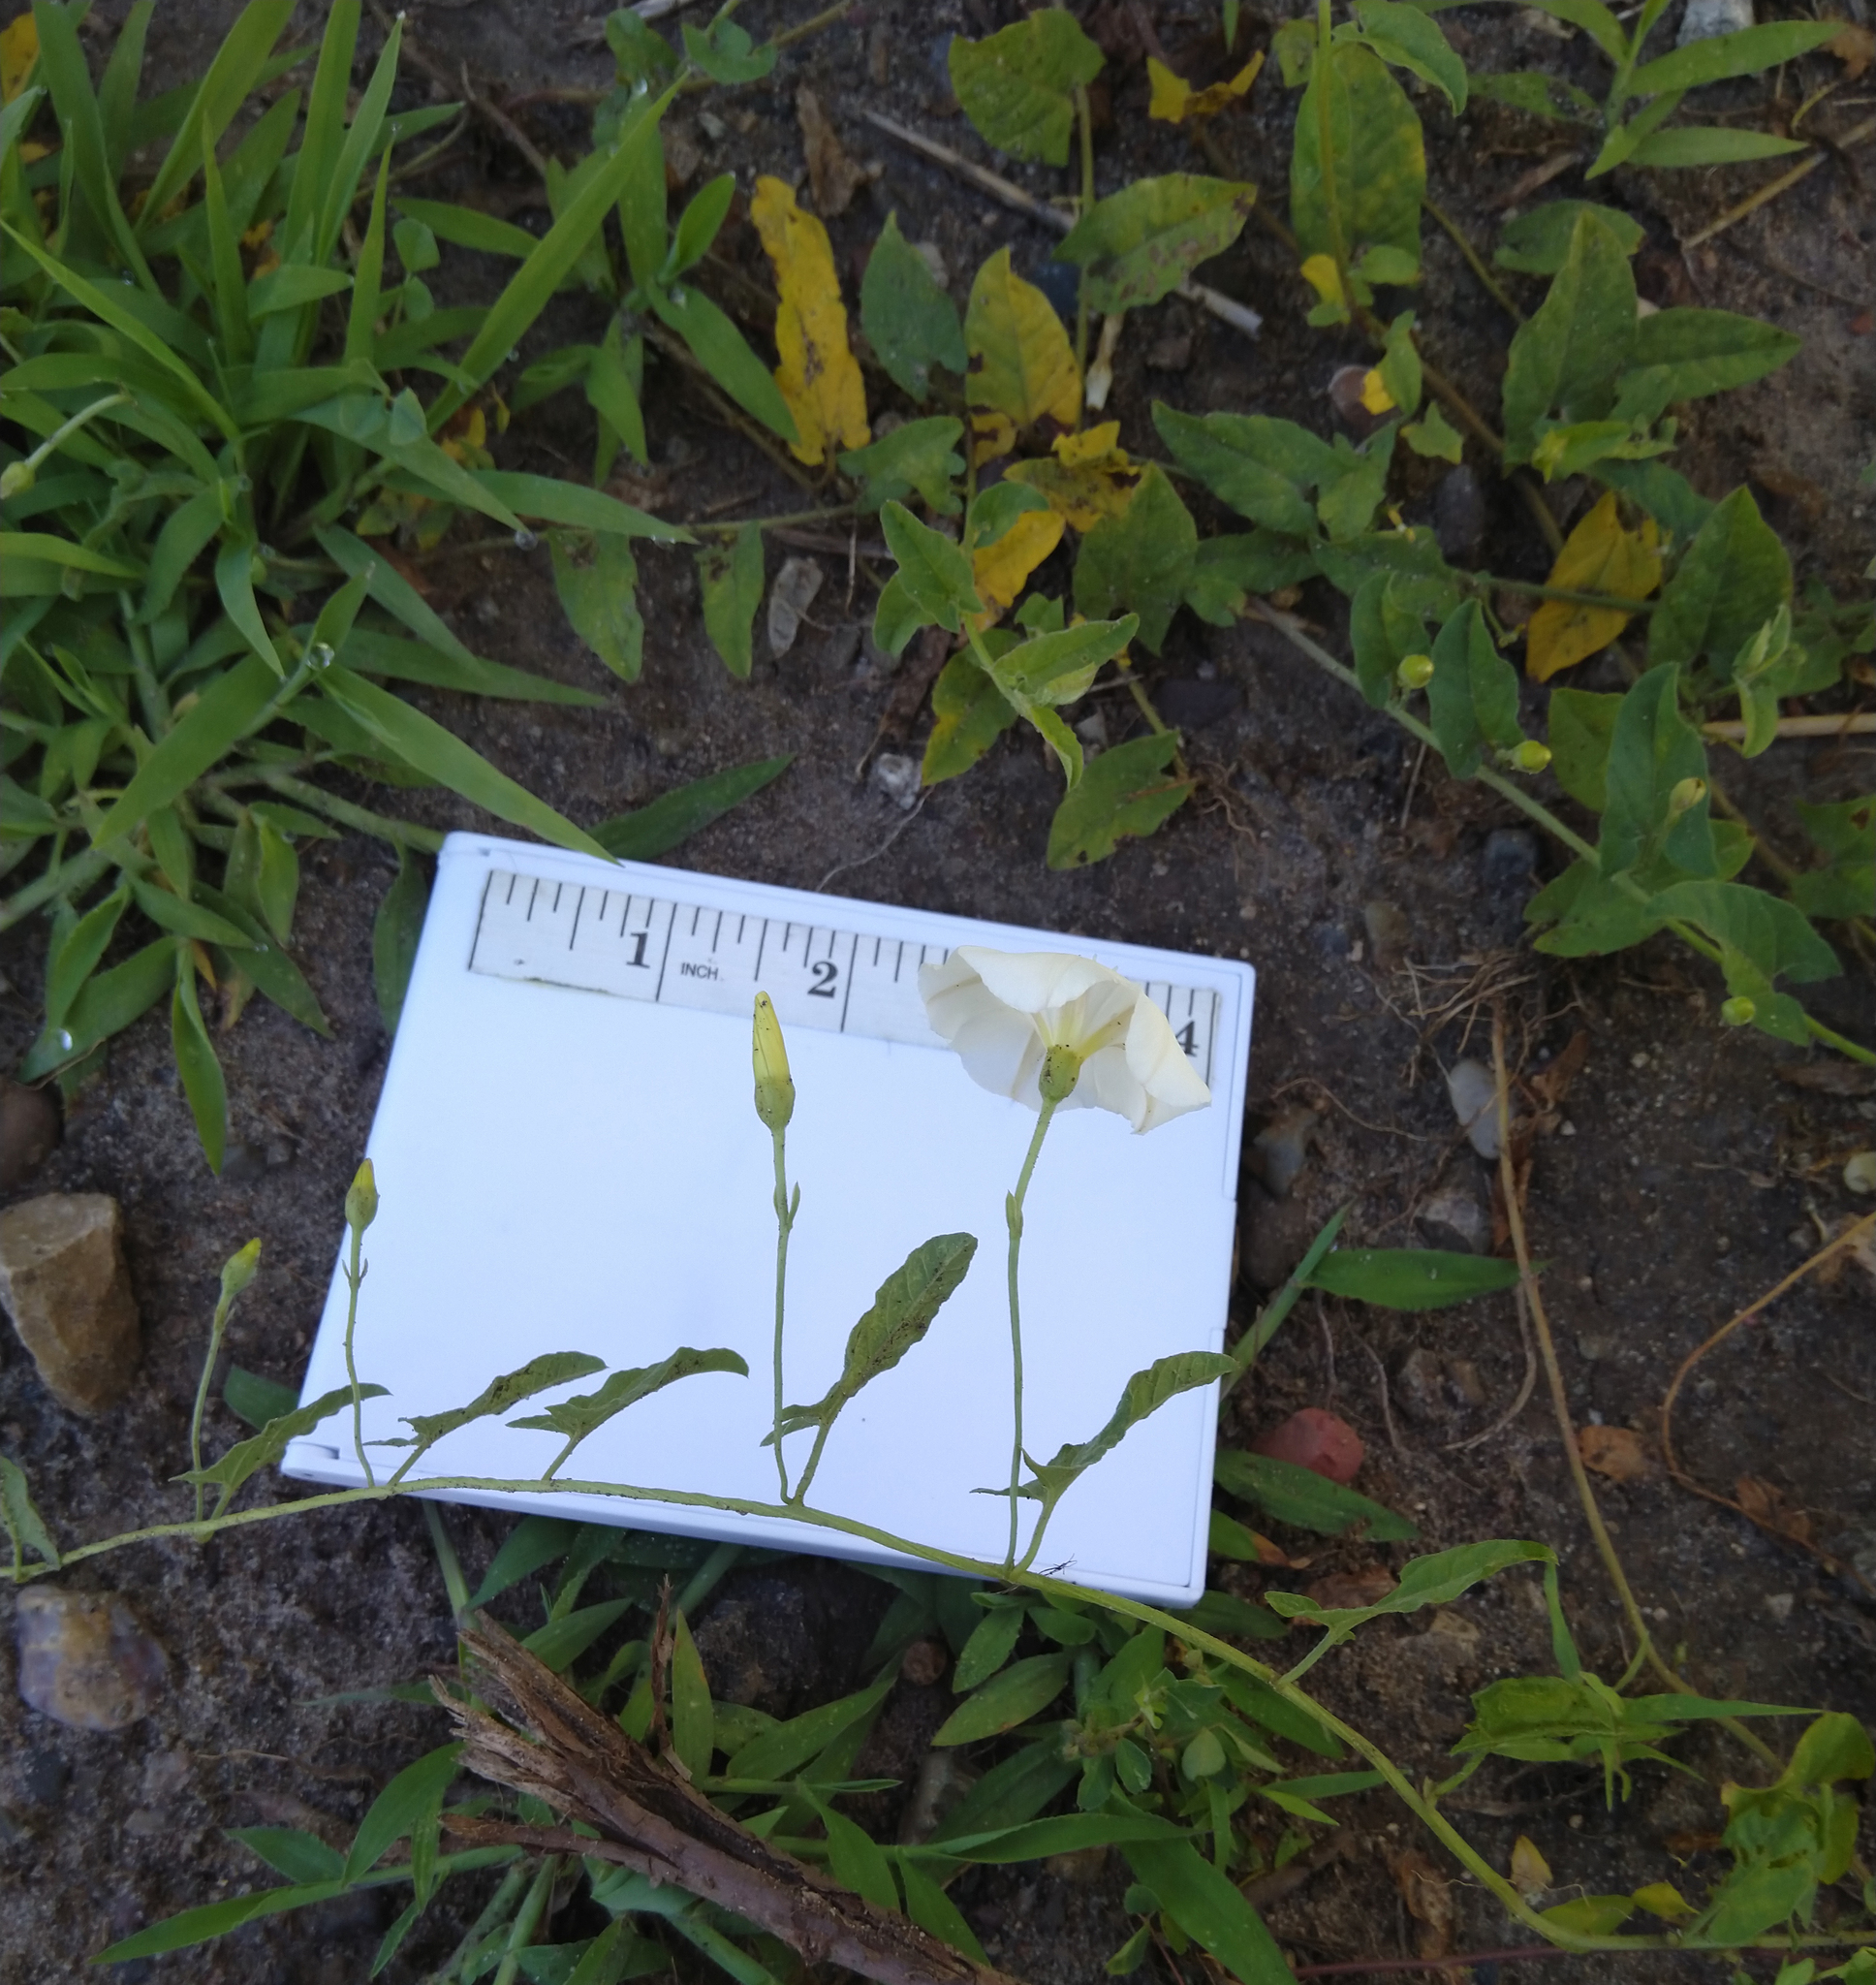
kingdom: Plantae
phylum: Tracheophyta
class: Magnoliopsida
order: Solanales
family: Convolvulaceae
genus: Convolvulus
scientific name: Convolvulus arvensis
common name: Field bindweed
